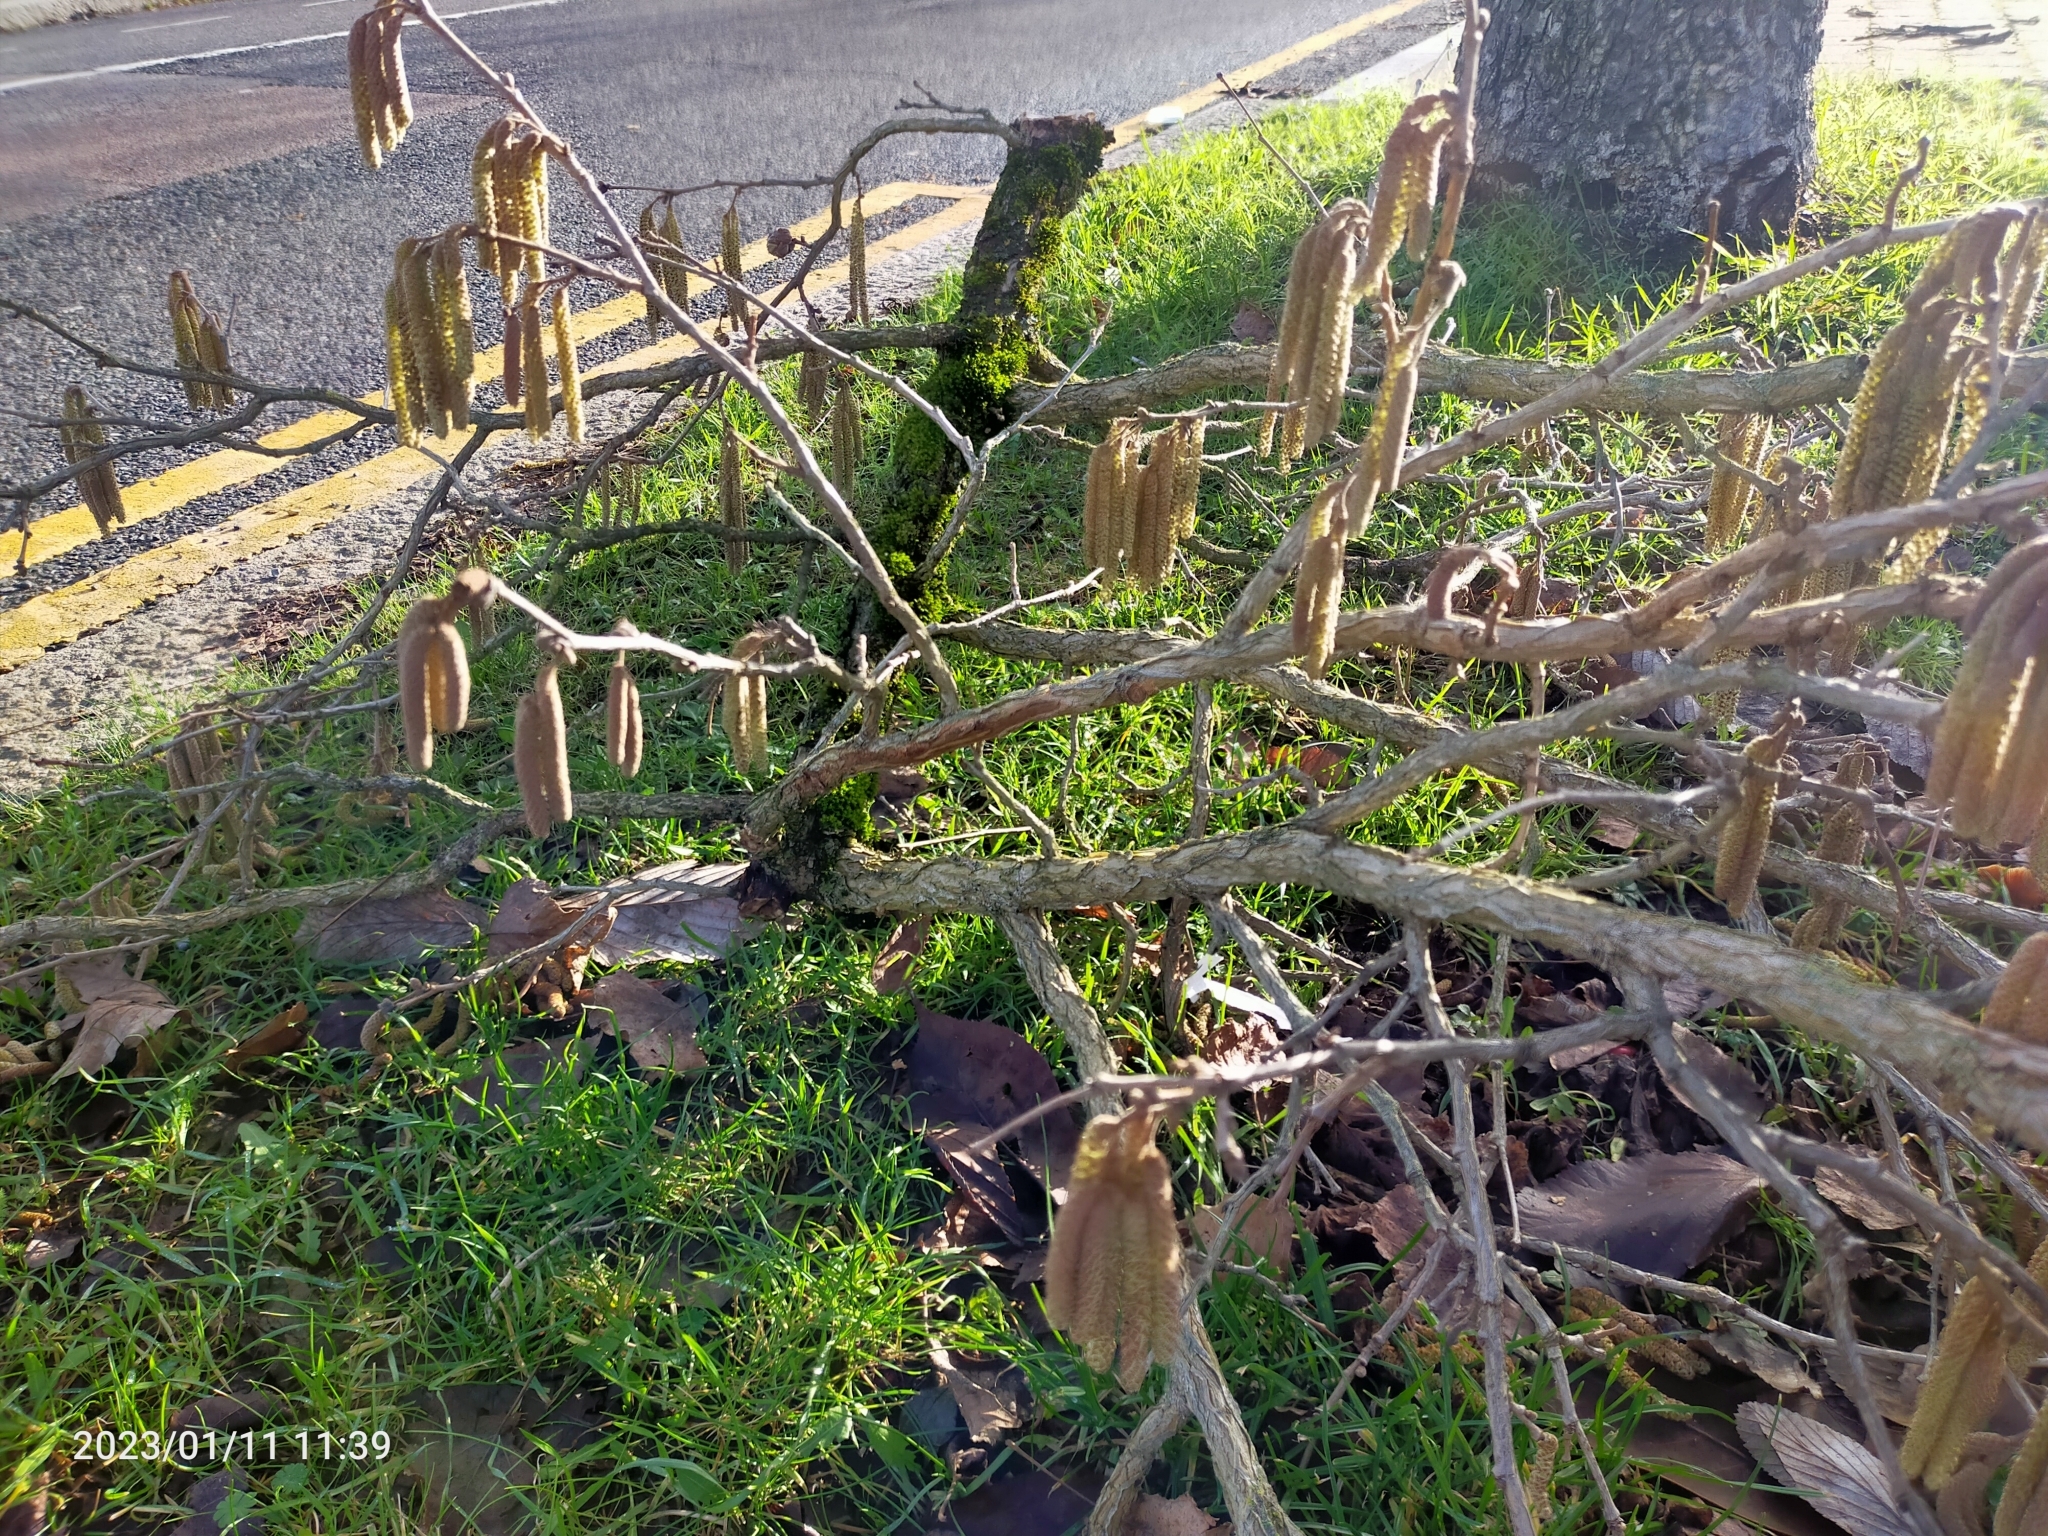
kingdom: Plantae
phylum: Tracheophyta
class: Magnoliopsida
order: Fagales
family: Betulaceae
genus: Corylus
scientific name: Corylus avellana
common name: European hazel
